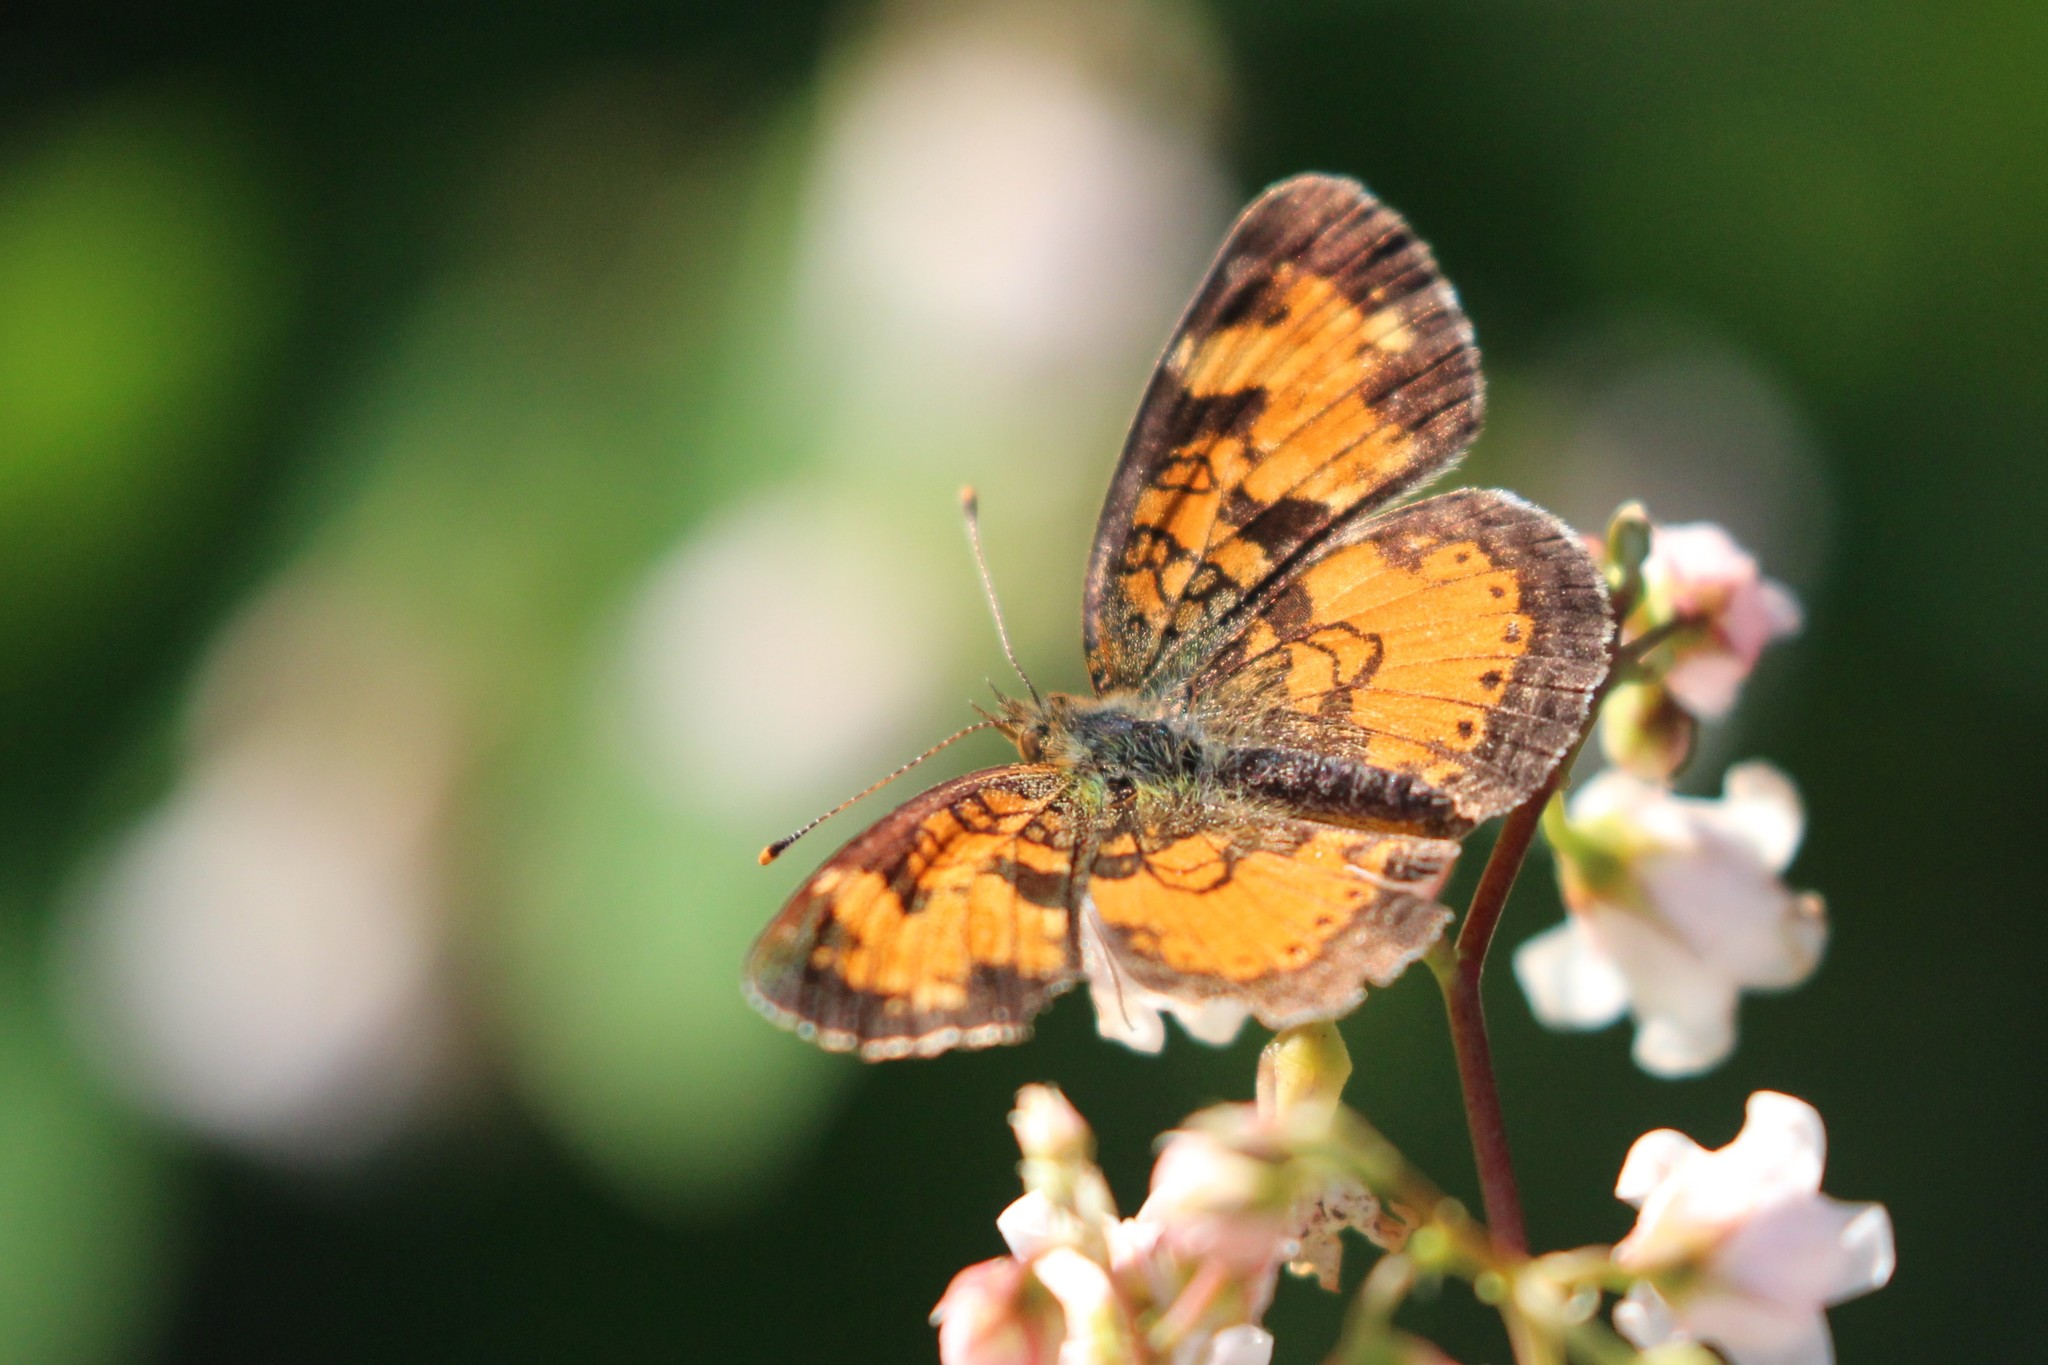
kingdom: Animalia
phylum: Arthropoda
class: Insecta
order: Lepidoptera
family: Nymphalidae
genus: Phyciodes
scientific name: Phyciodes tharos
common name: Pearl crescent
